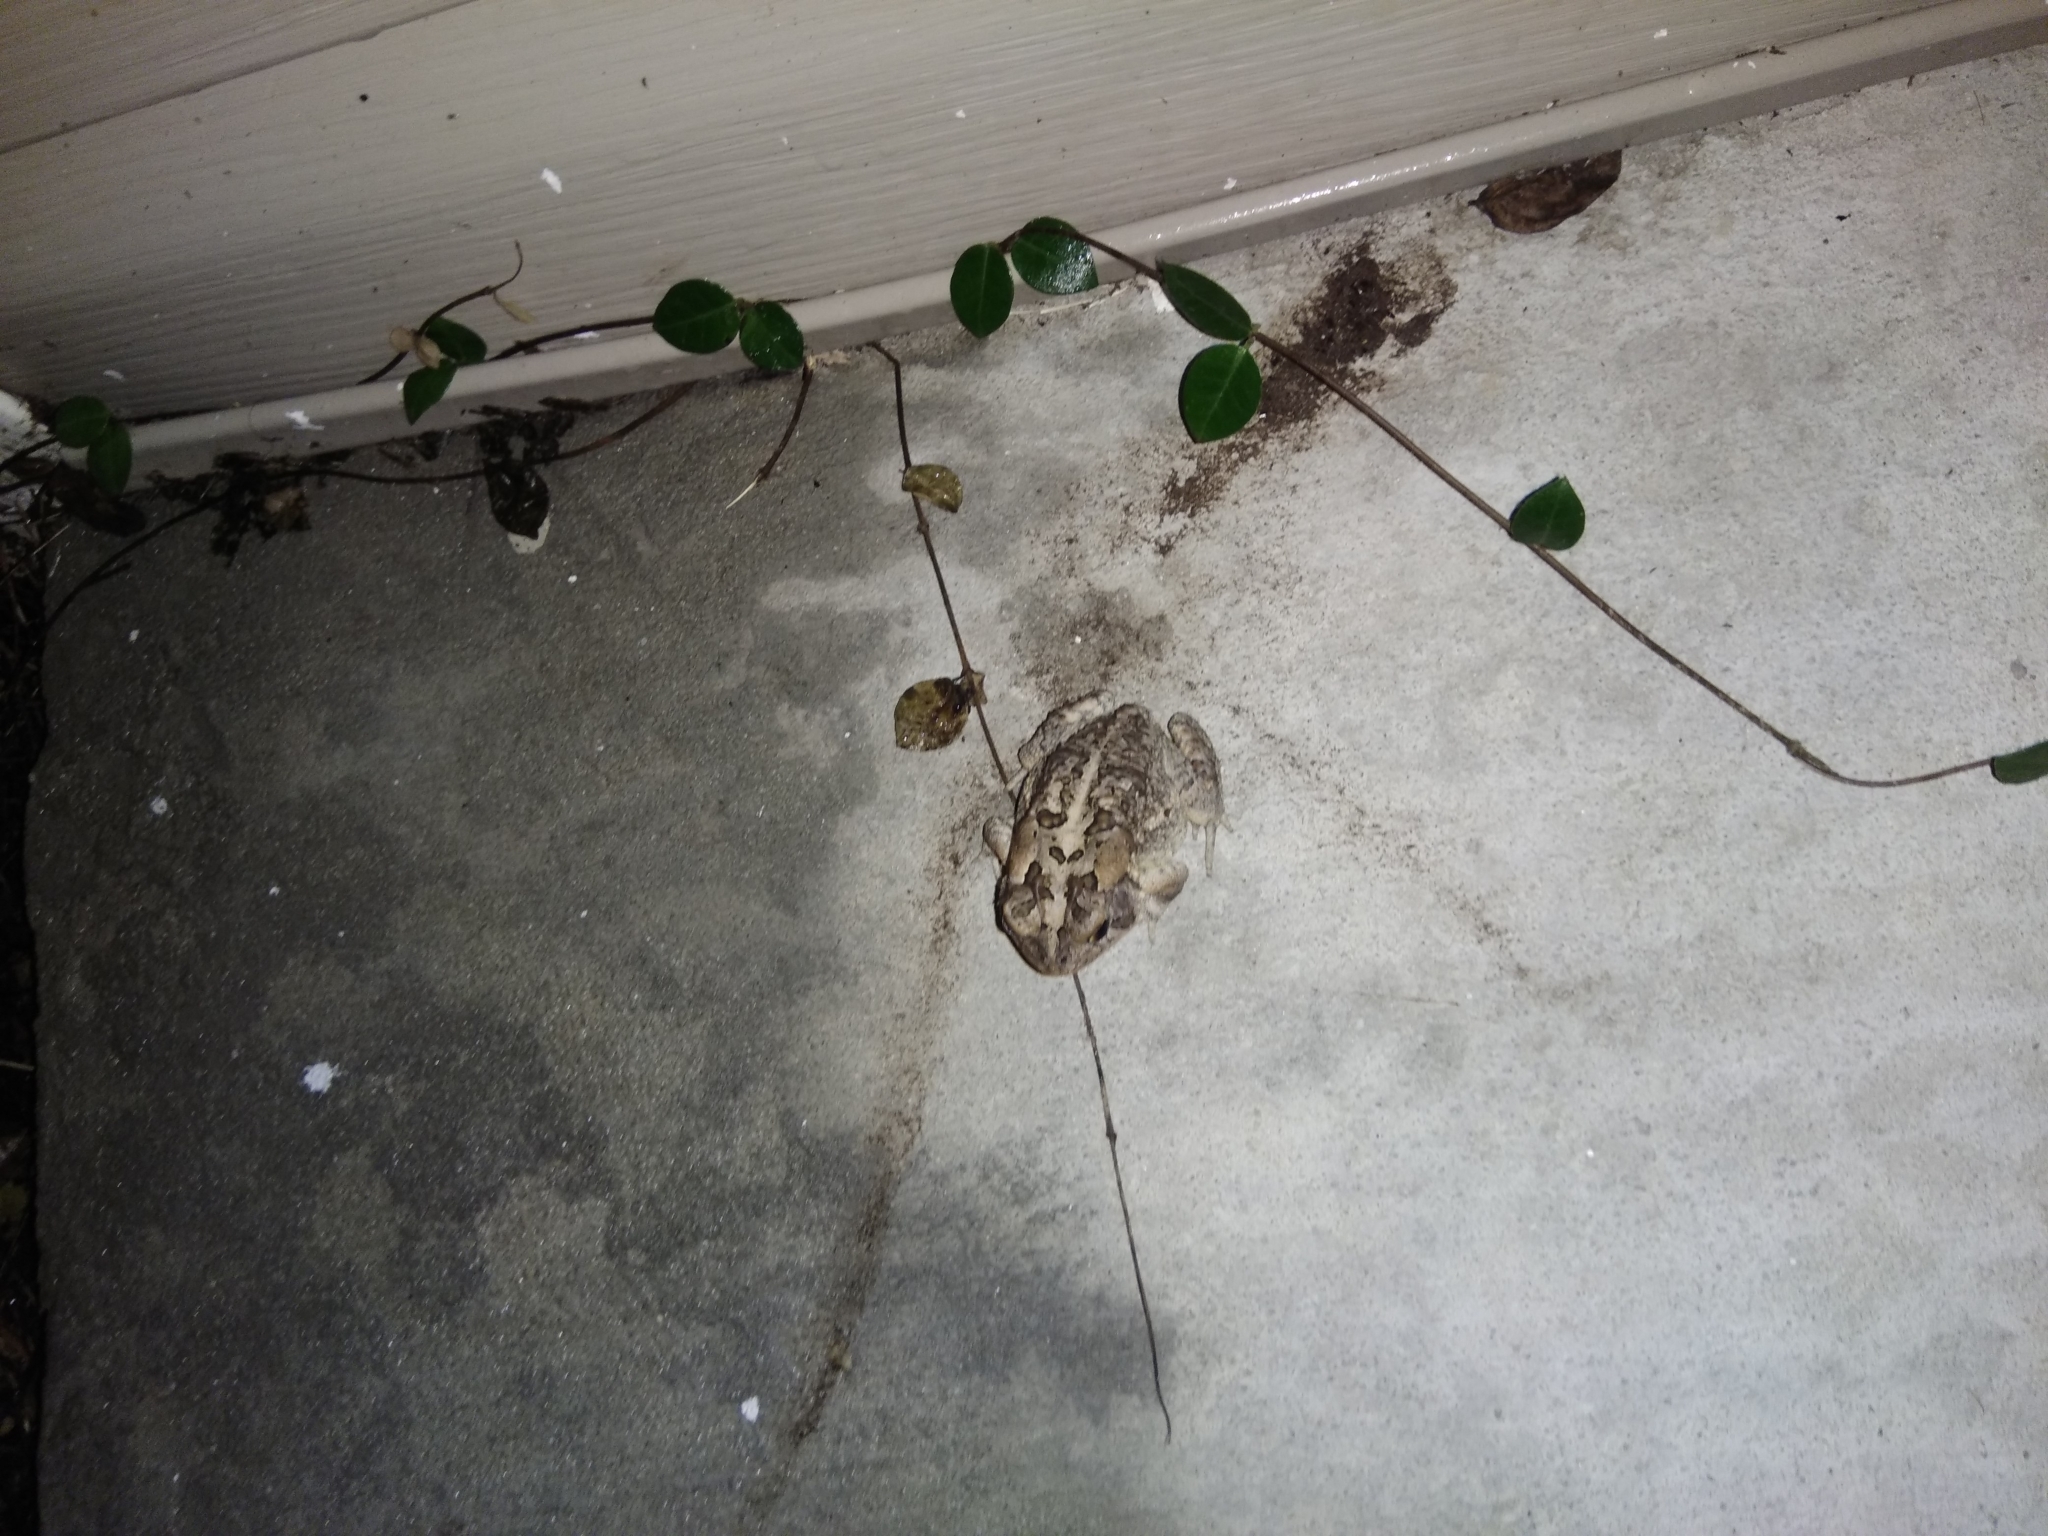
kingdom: Animalia
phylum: Chordata
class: Amphibia
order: Anura
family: Bufonidae
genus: Anaxyrus
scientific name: Anaxyrus terrestris
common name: Southern toad
